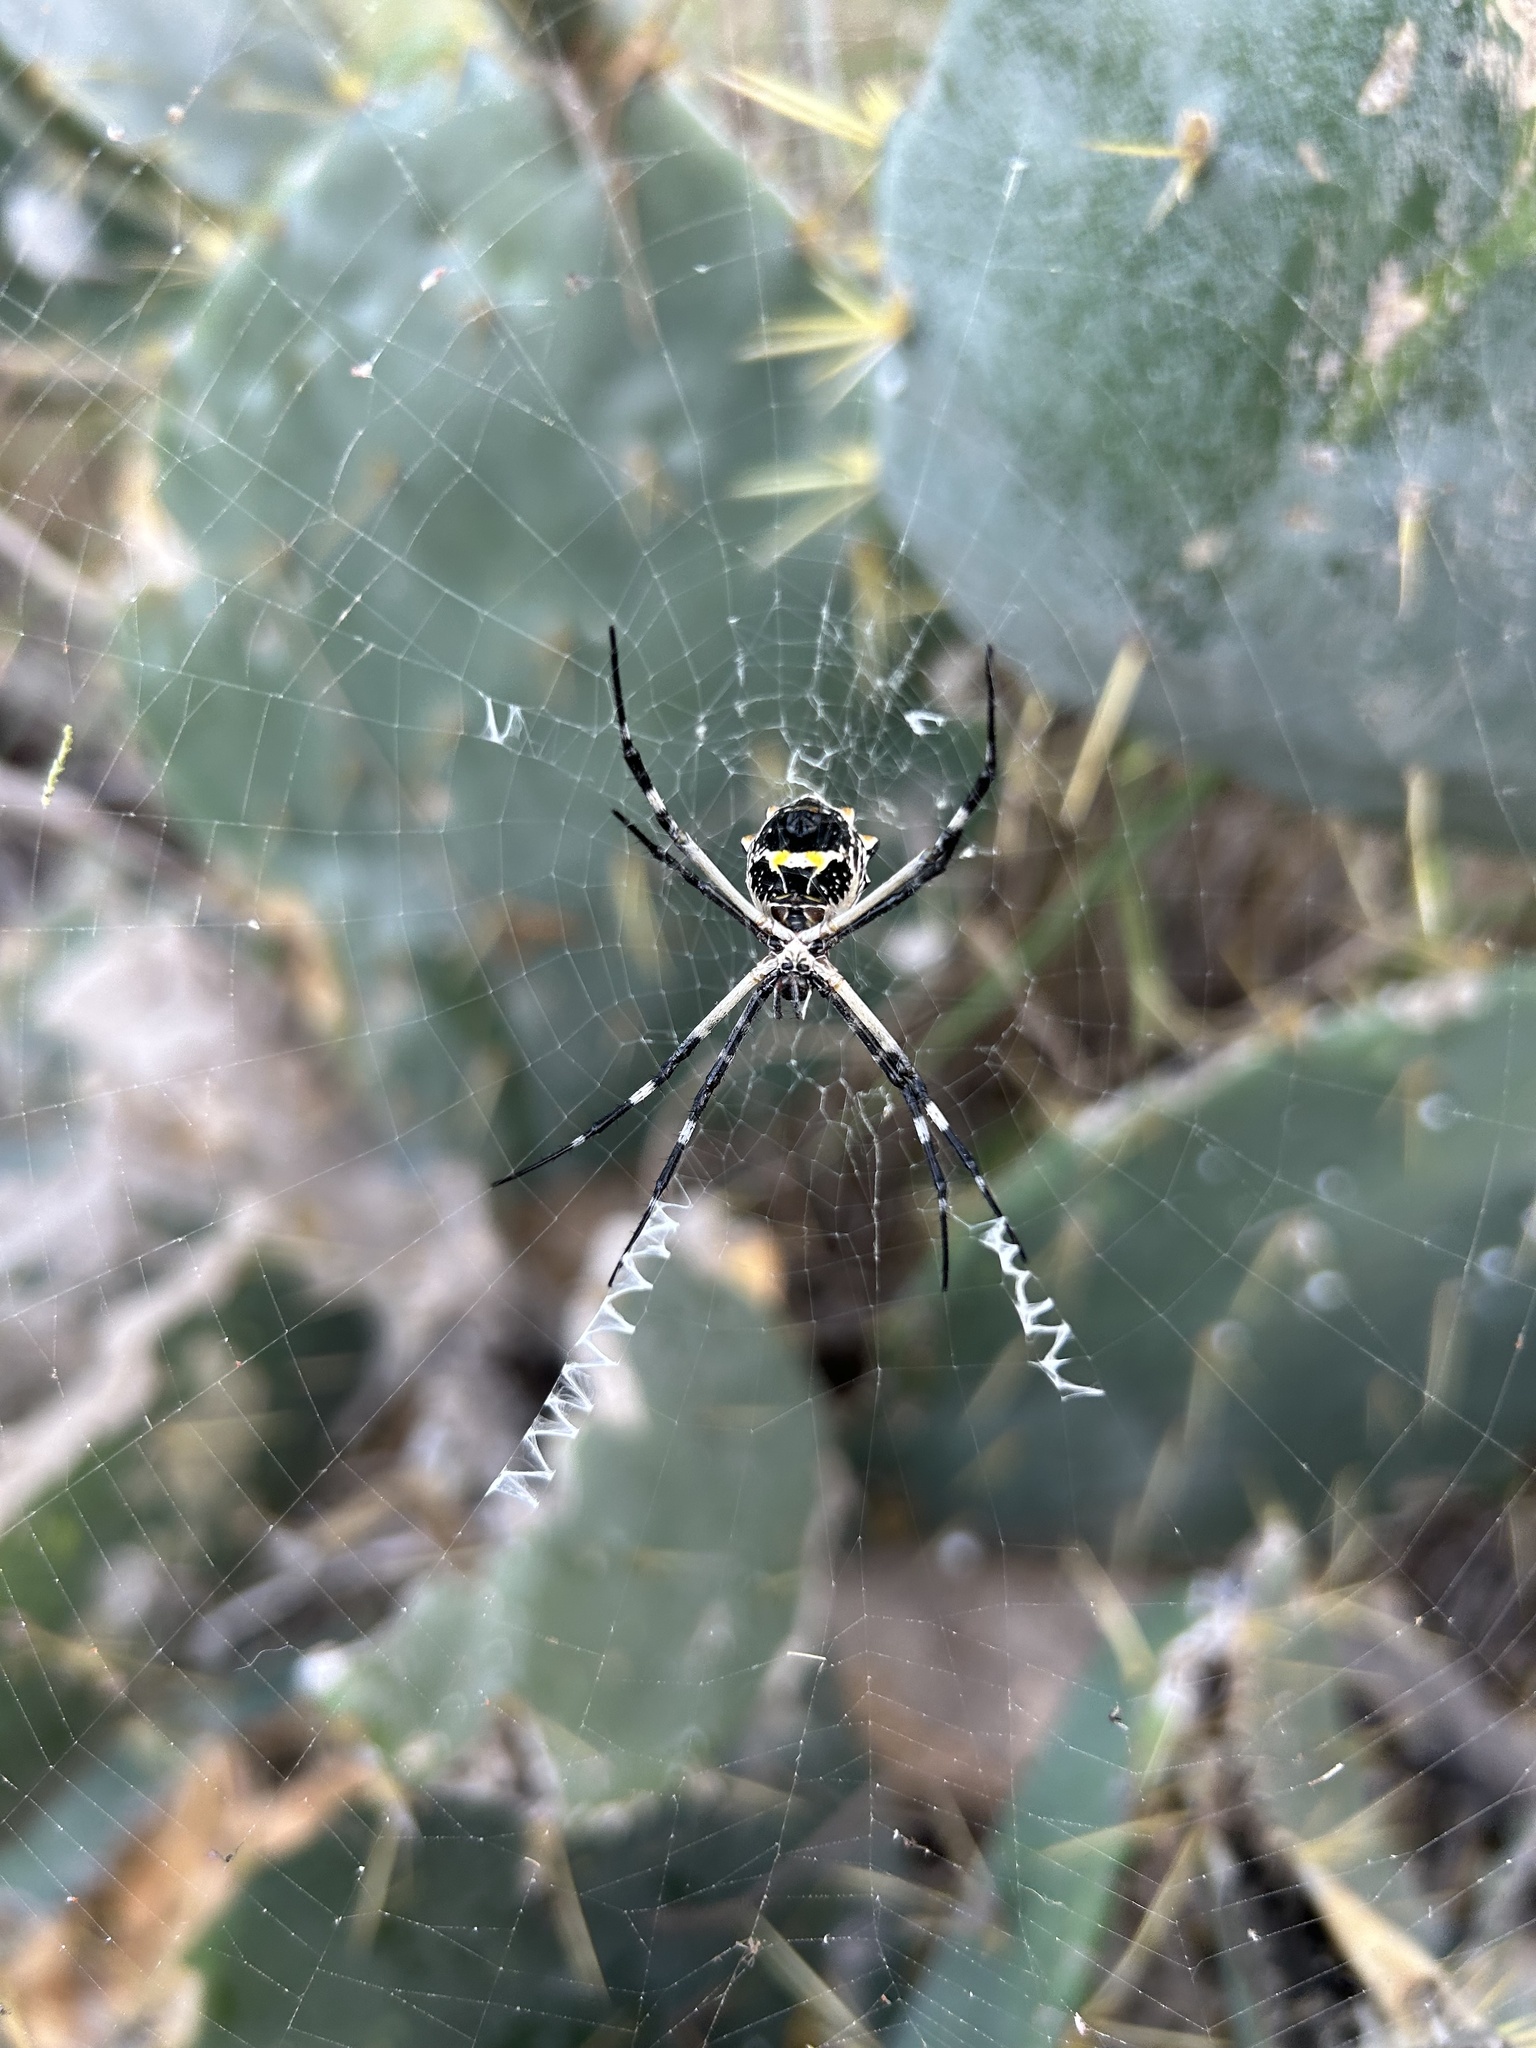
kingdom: Animalia
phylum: Arthropoda
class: Arachnida
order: Araneae
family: Araneidae
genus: Argiope
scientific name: Argiope argentata
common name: Orb weavers
